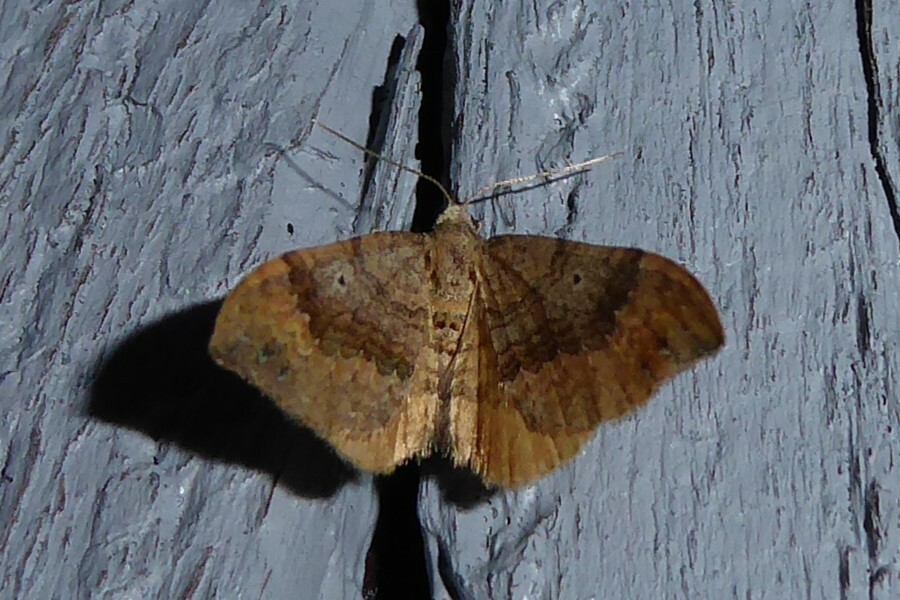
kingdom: Animalia
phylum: Arthropoda
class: Insecta
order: Lepidoptera
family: Geometridae
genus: Homodotis
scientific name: Homodotis megaspilata
